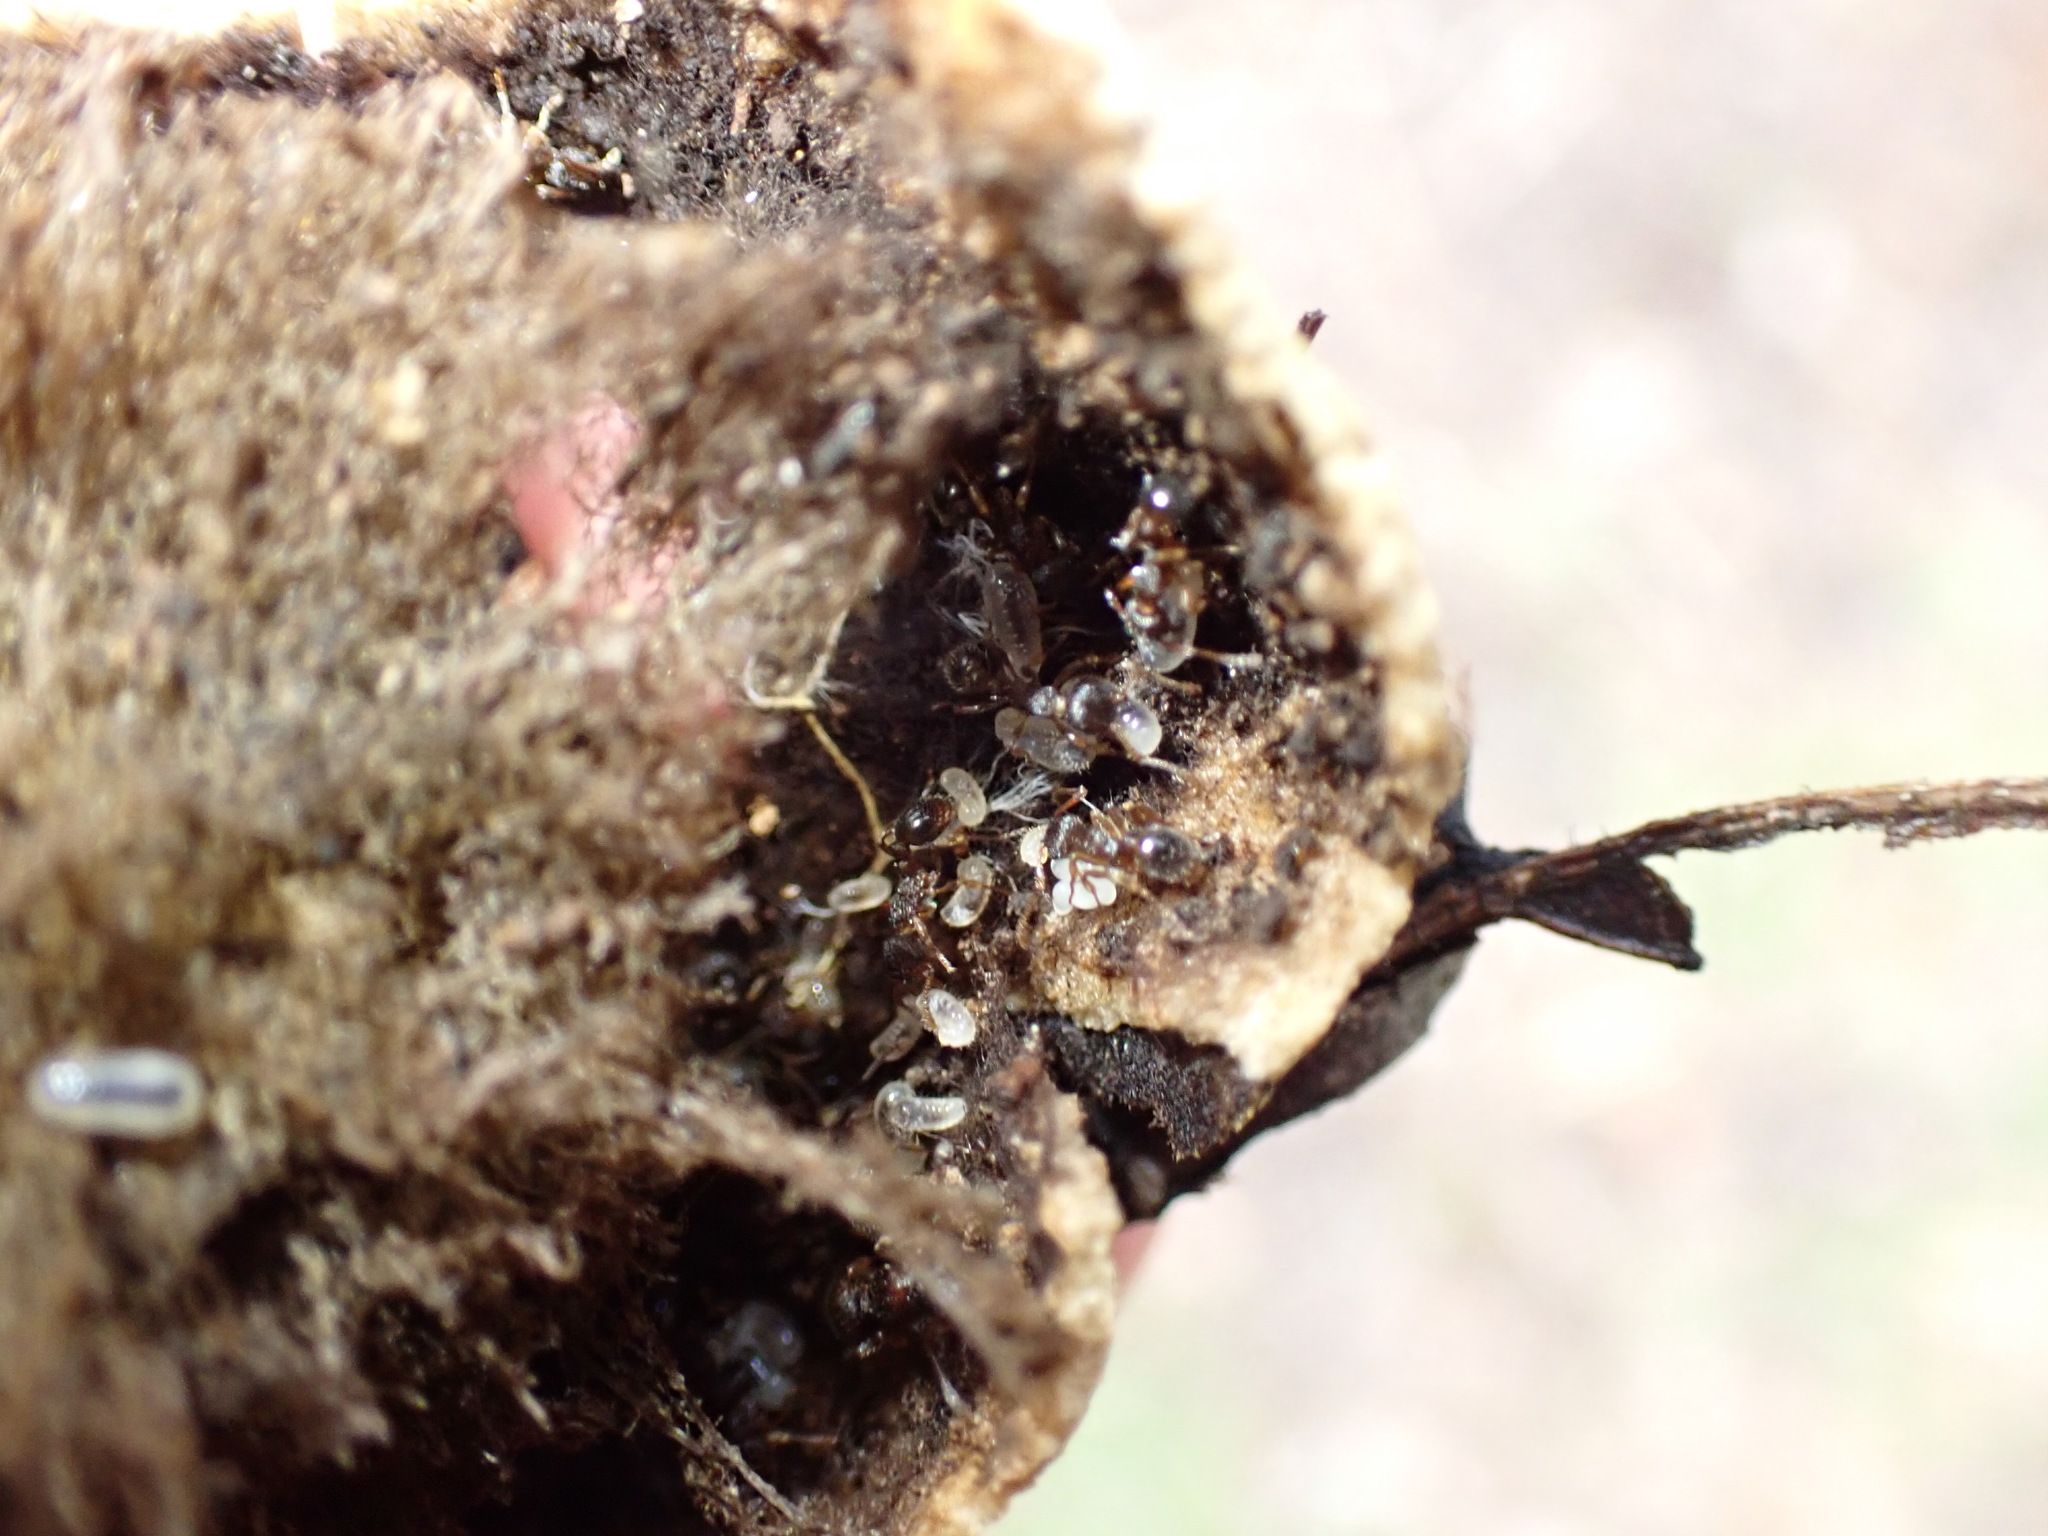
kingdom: Animalia
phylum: Arthropoda
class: Insecta
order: Hymenoptera
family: Formicidae
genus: Myrmica
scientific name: Myrmica
